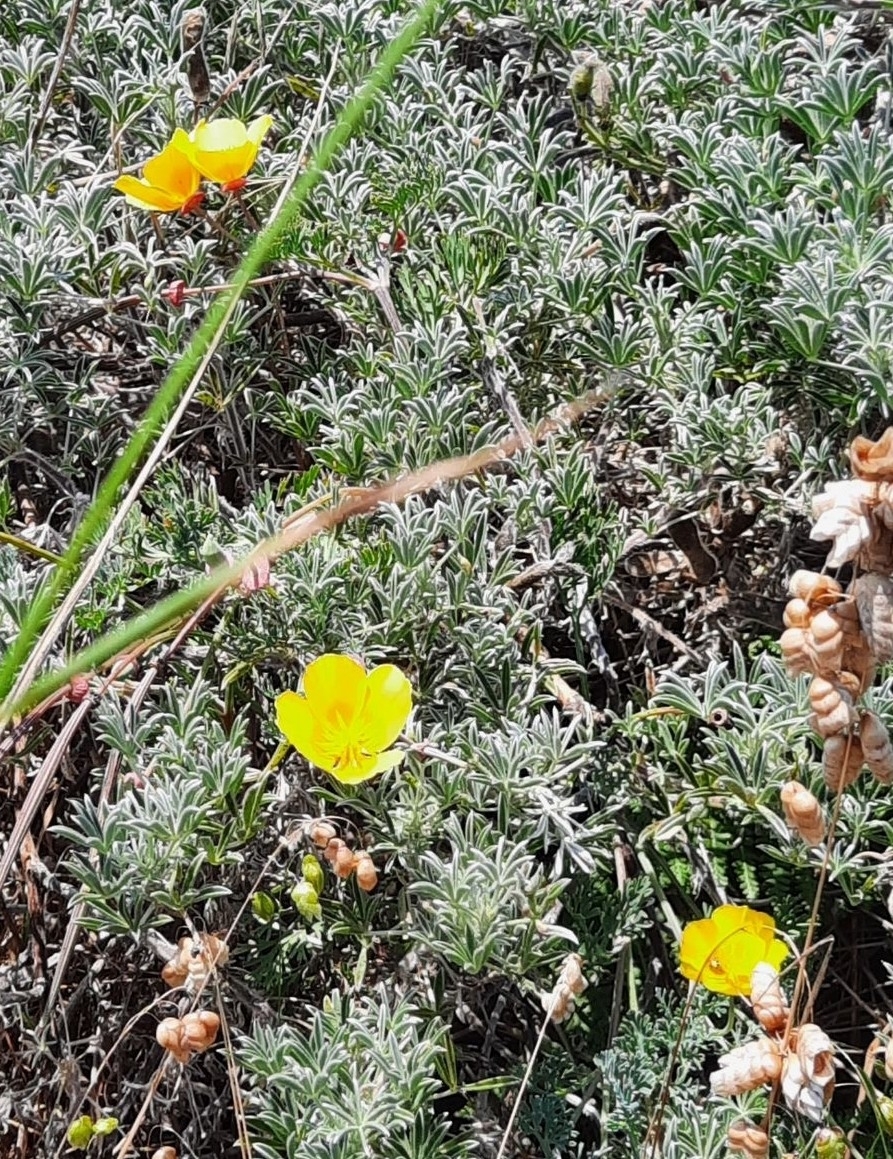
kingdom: Plantae
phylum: Tracheophyta
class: Magnoliopsida
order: Ranunculales
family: Papaveraceae
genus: Eschscholzia
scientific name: Eschscholzia californica
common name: California poppy
